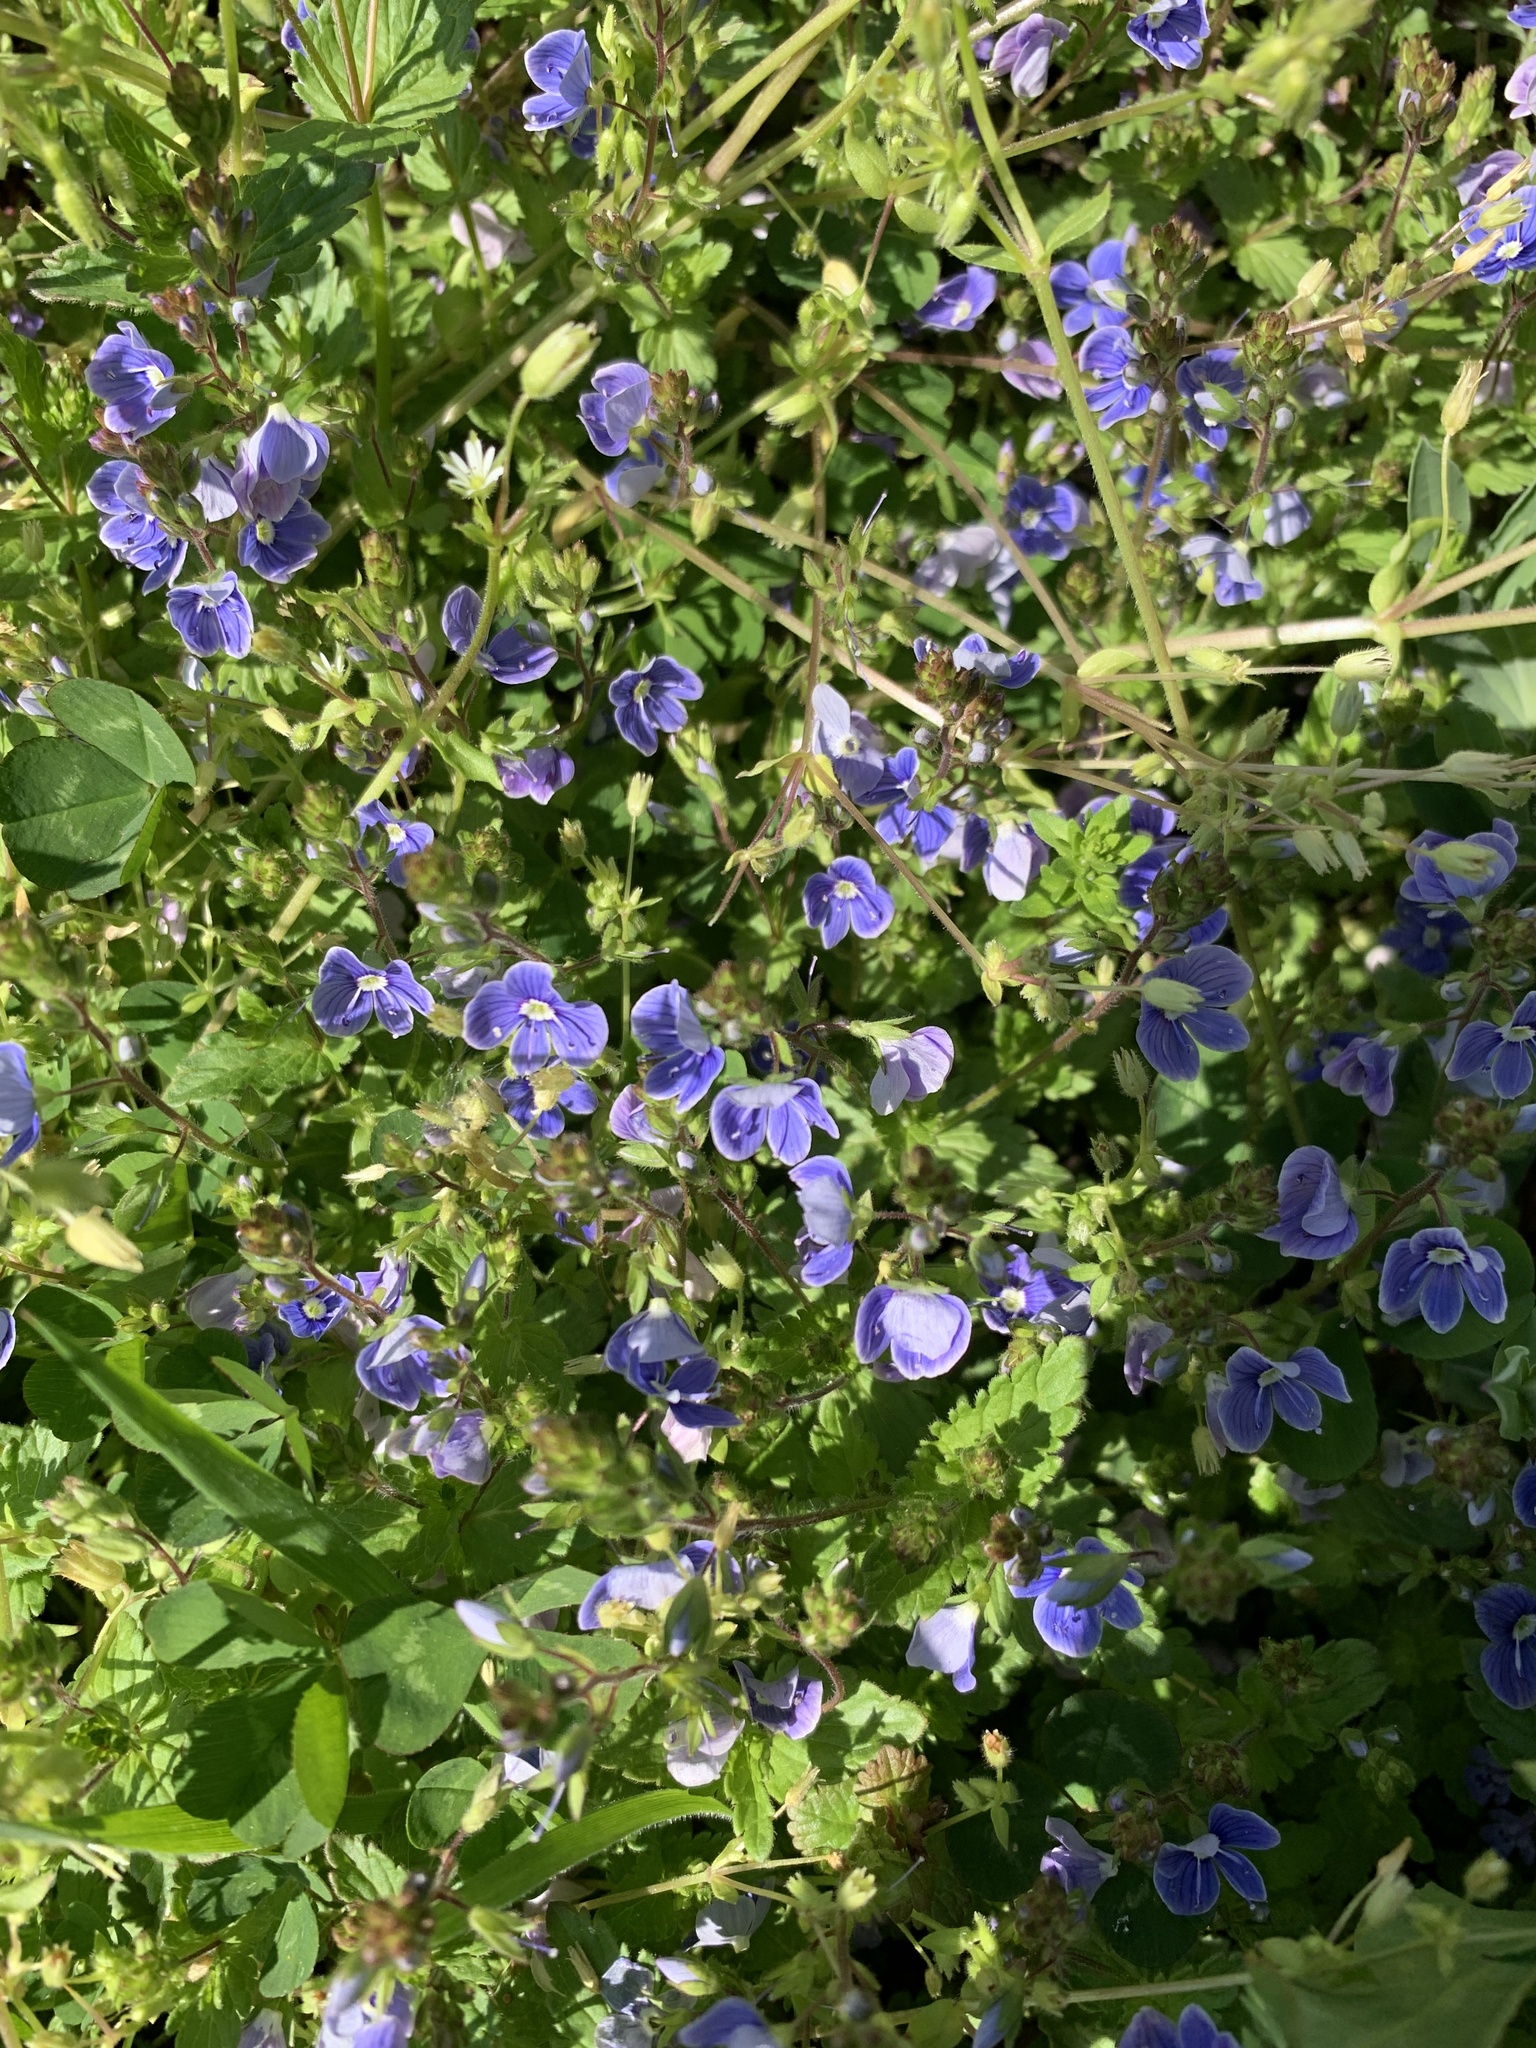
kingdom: Plantae
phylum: Tracheophyta
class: Magnoliopsida
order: Lamiales
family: Plantaginaceae
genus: Veronica
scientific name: Veronica chamaedrys
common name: Germander speedwell
